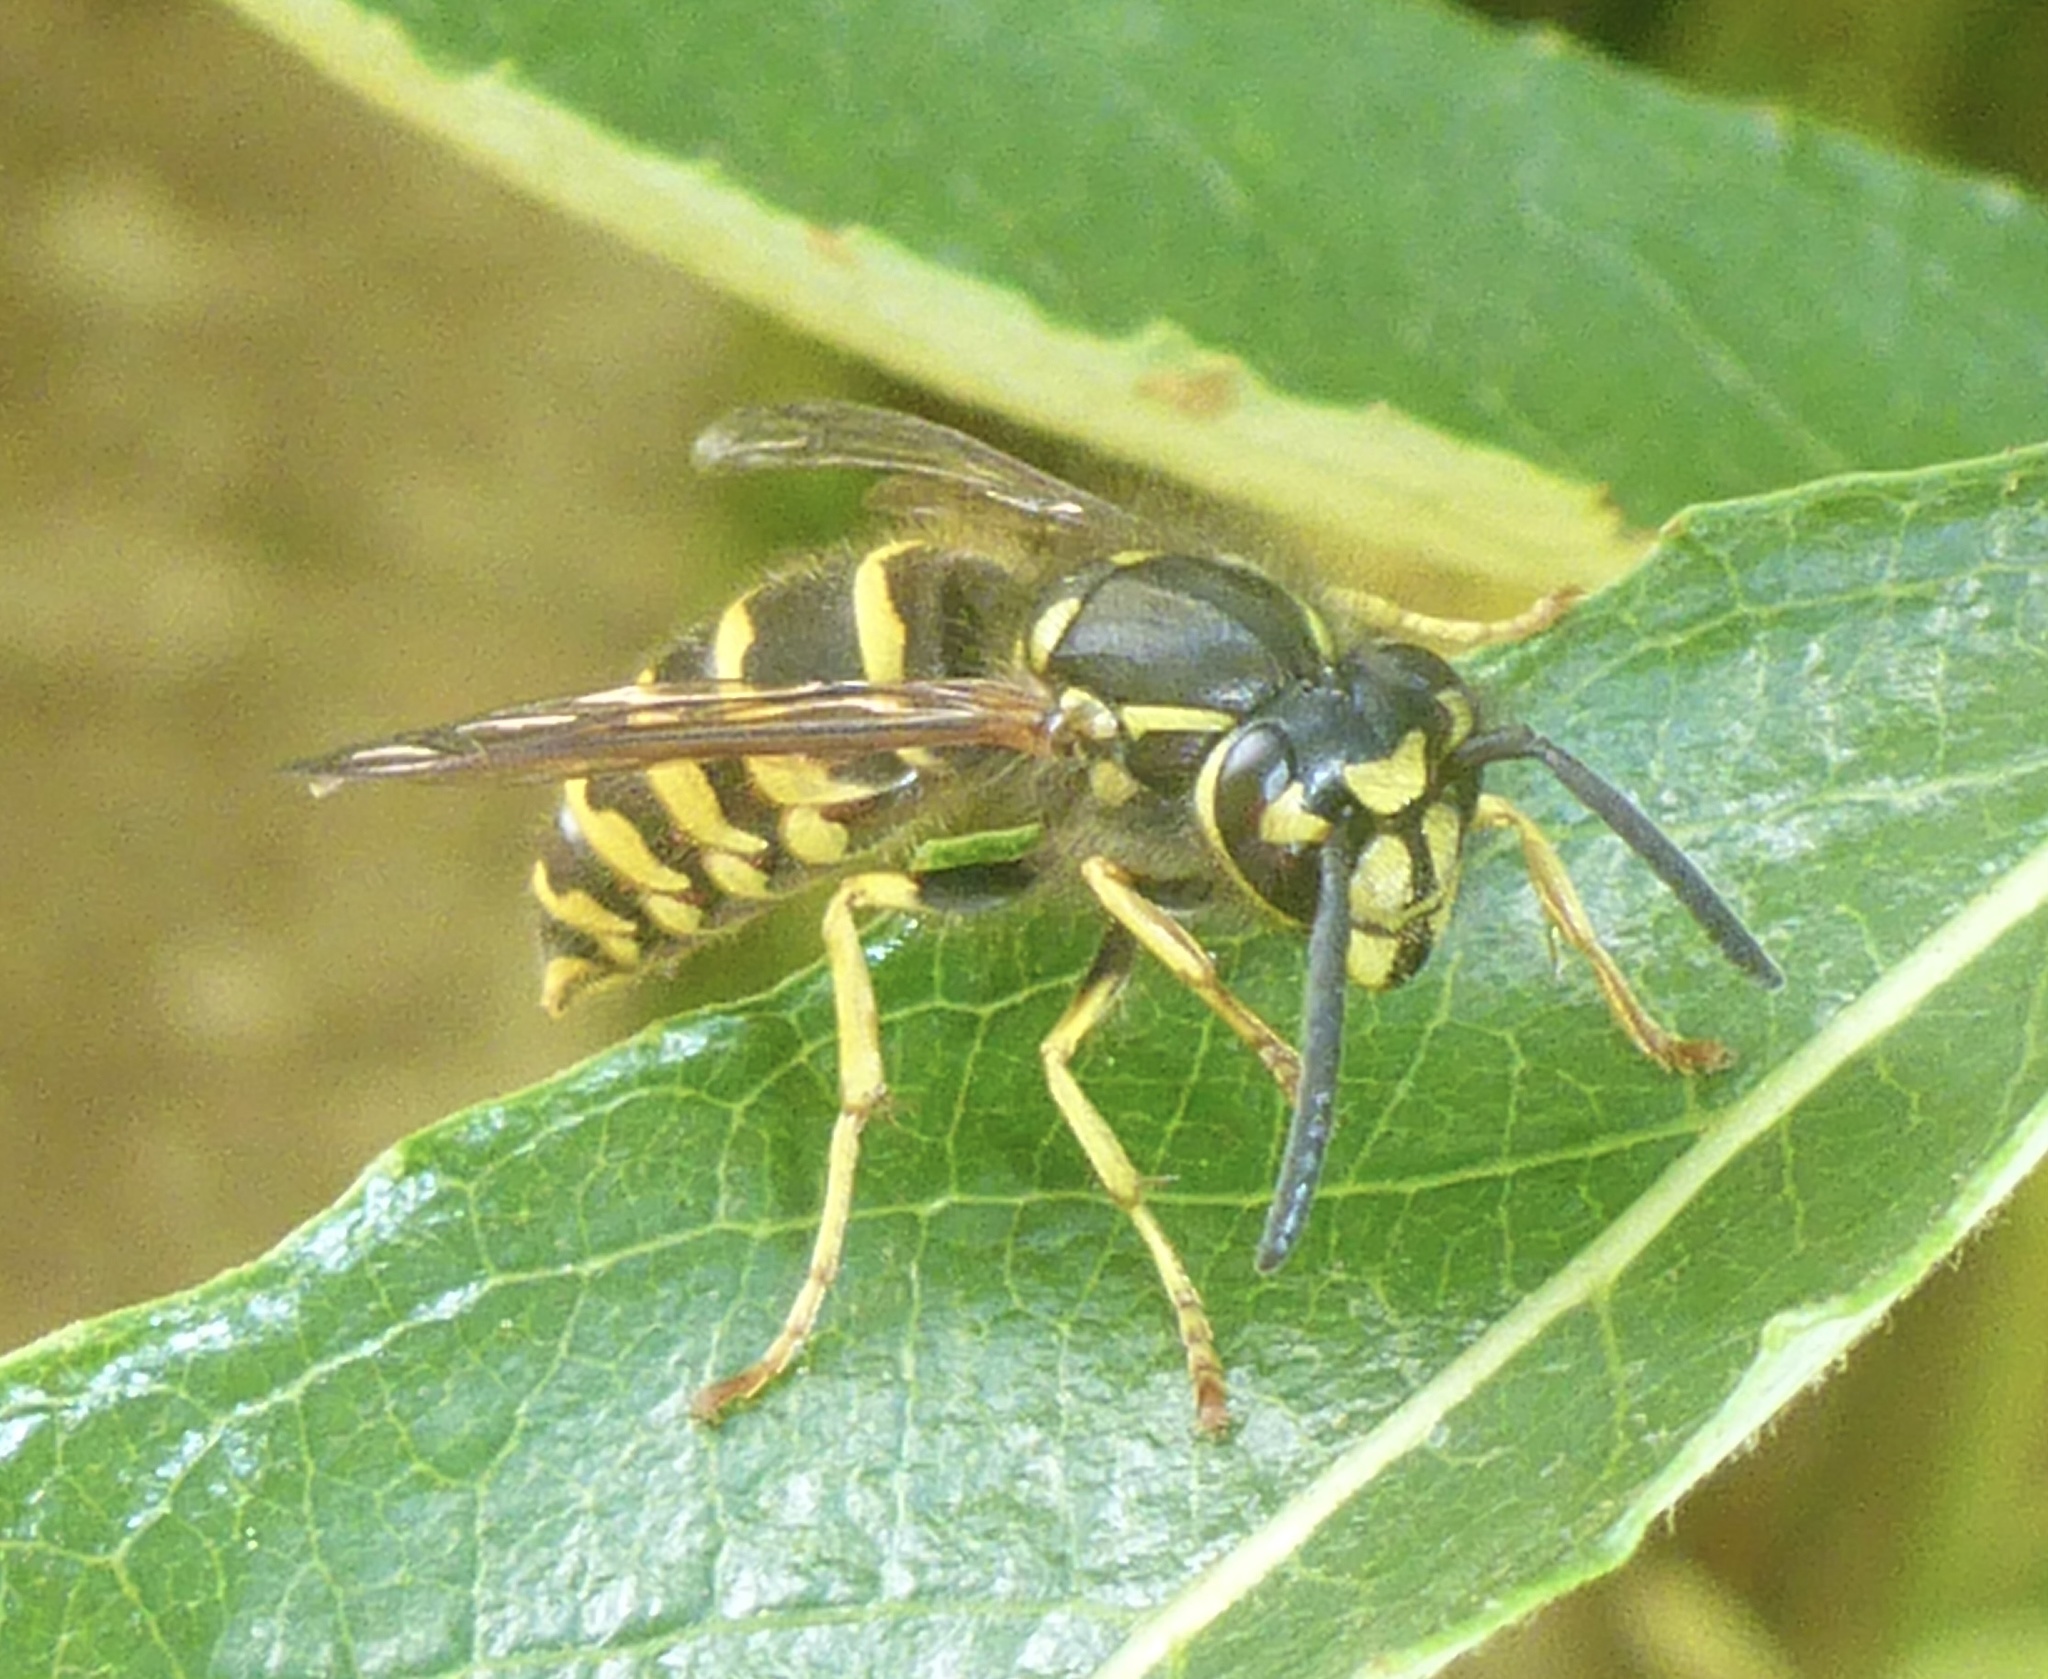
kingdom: Animalia
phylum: Arthropoda
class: Insecta
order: Hymenoptera
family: Vespidae
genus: Vespula
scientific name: Vespula alascensis
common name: Alaska yellowjacket
